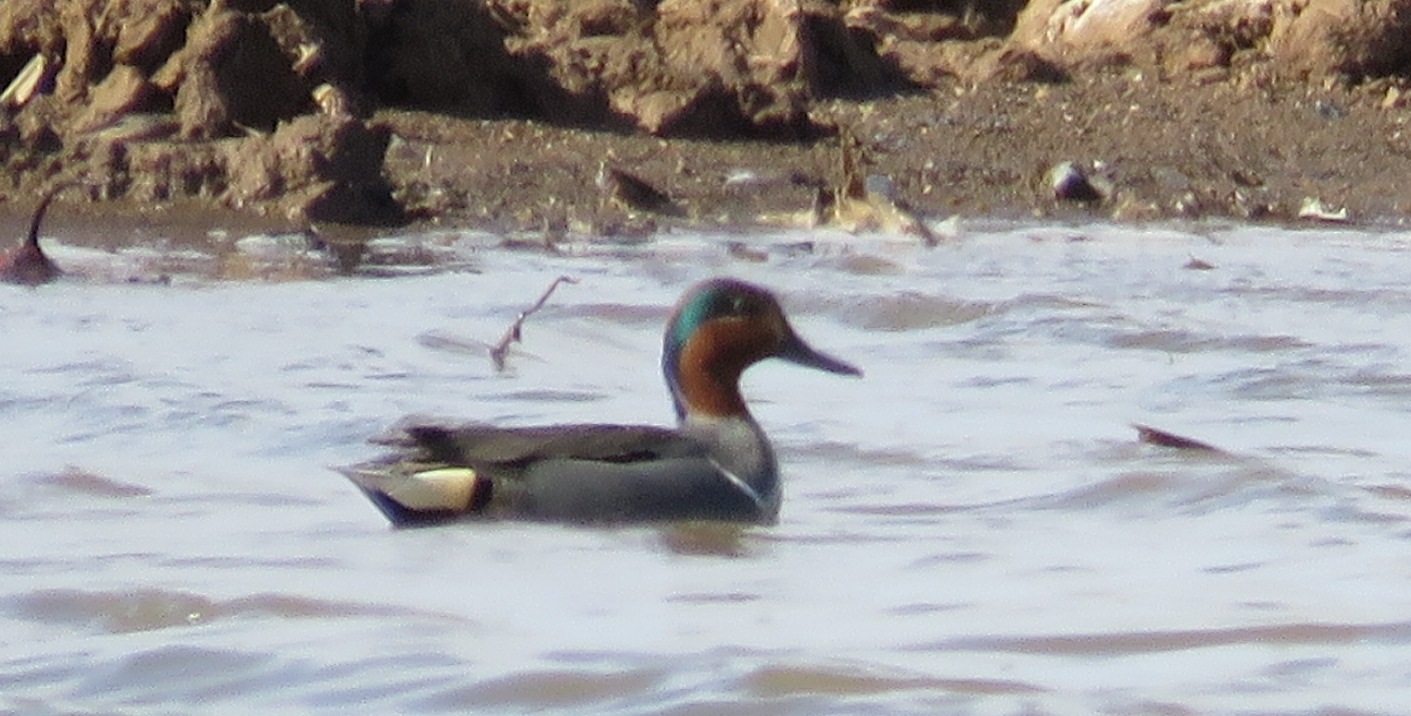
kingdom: Animalia
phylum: Chordata
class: Aves
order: Anseriformes
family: Anatidae
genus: Anas
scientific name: Anas crecca
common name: Eurasian teal
